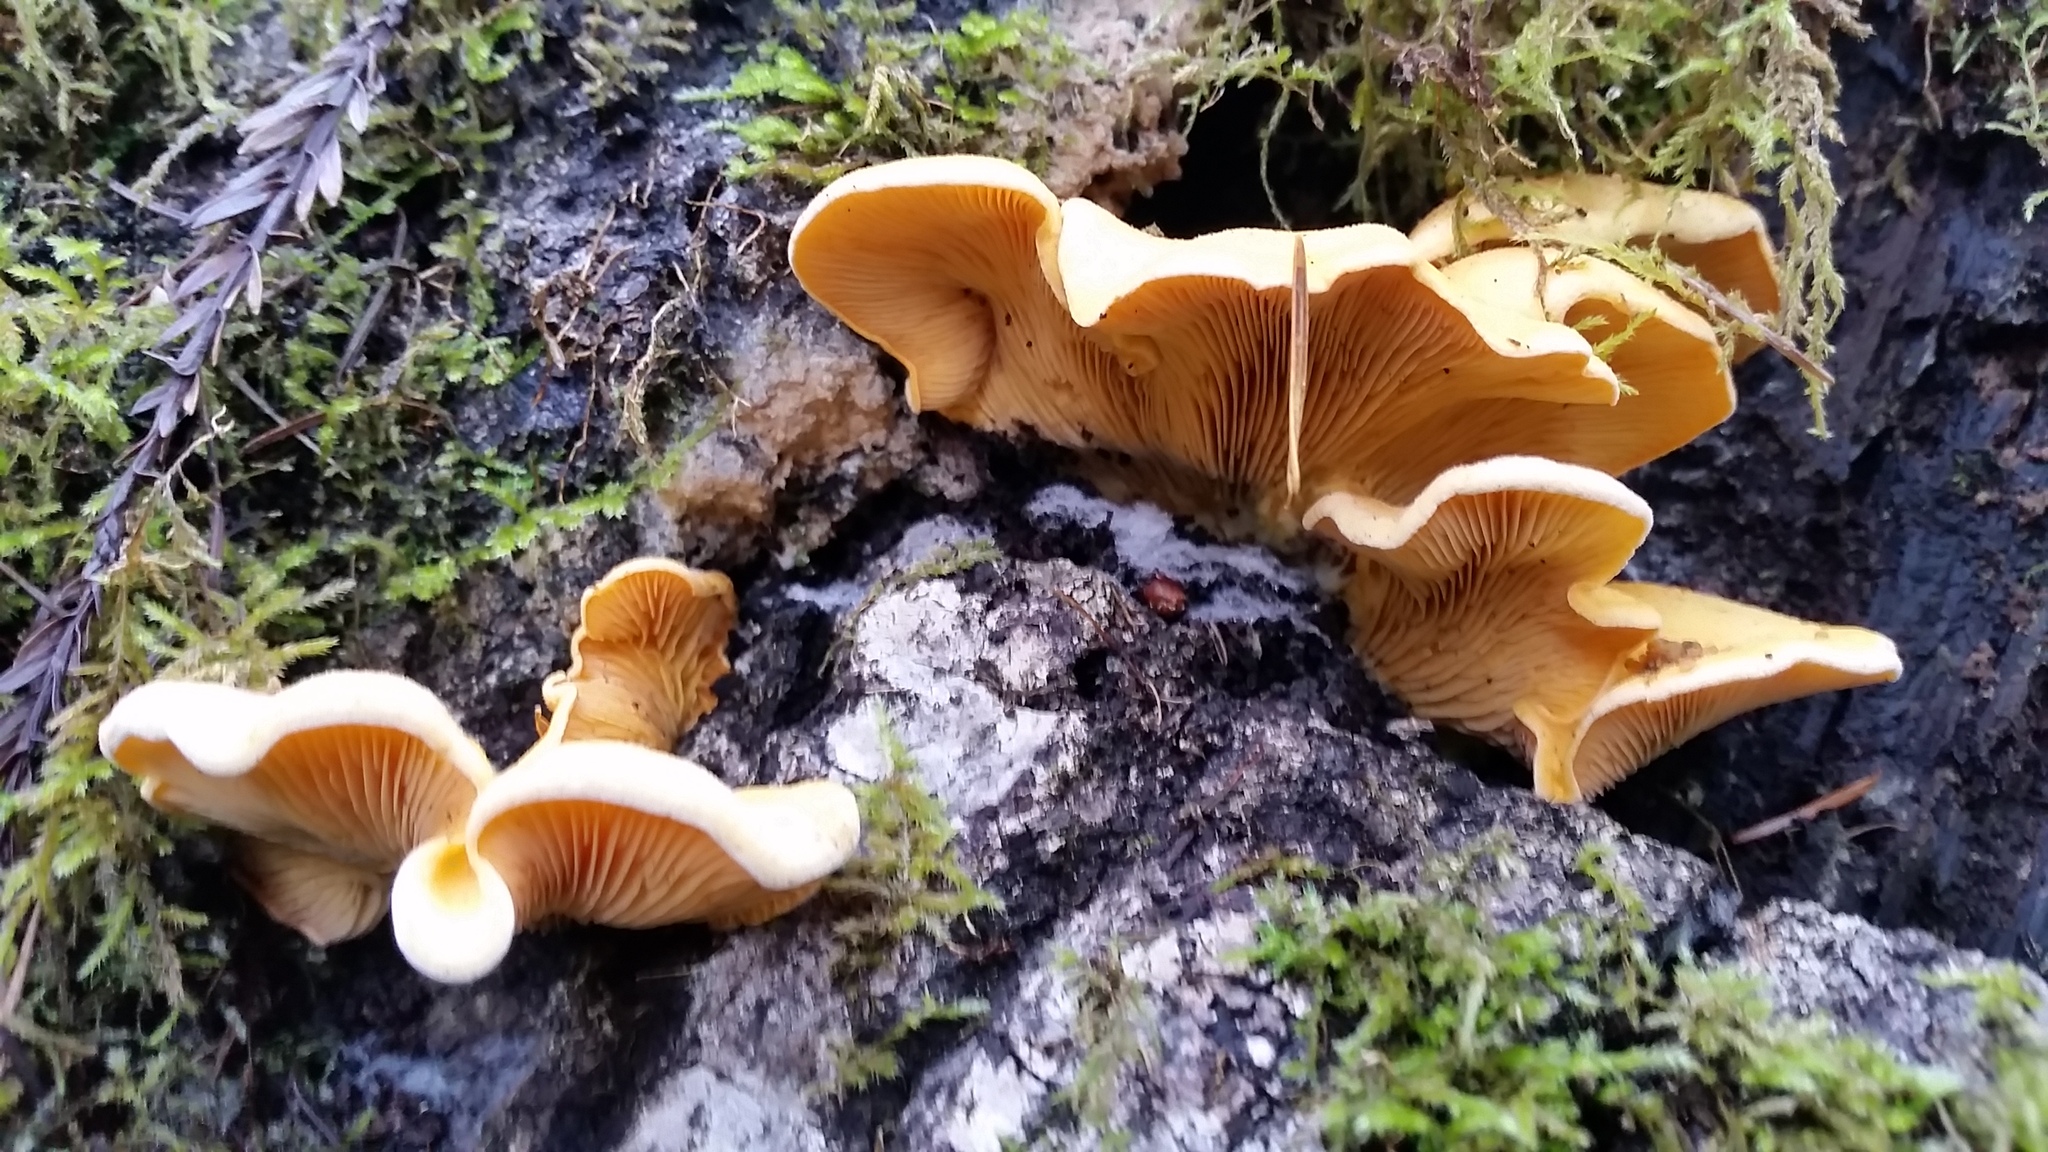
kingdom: Fungi
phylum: Basidiomycota
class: Agaricomycetes
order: Agaricales
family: Phyllotopsidaceae
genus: Phyllotopsis
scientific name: Phyllotopsis nidulans
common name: Orange mock oyster
